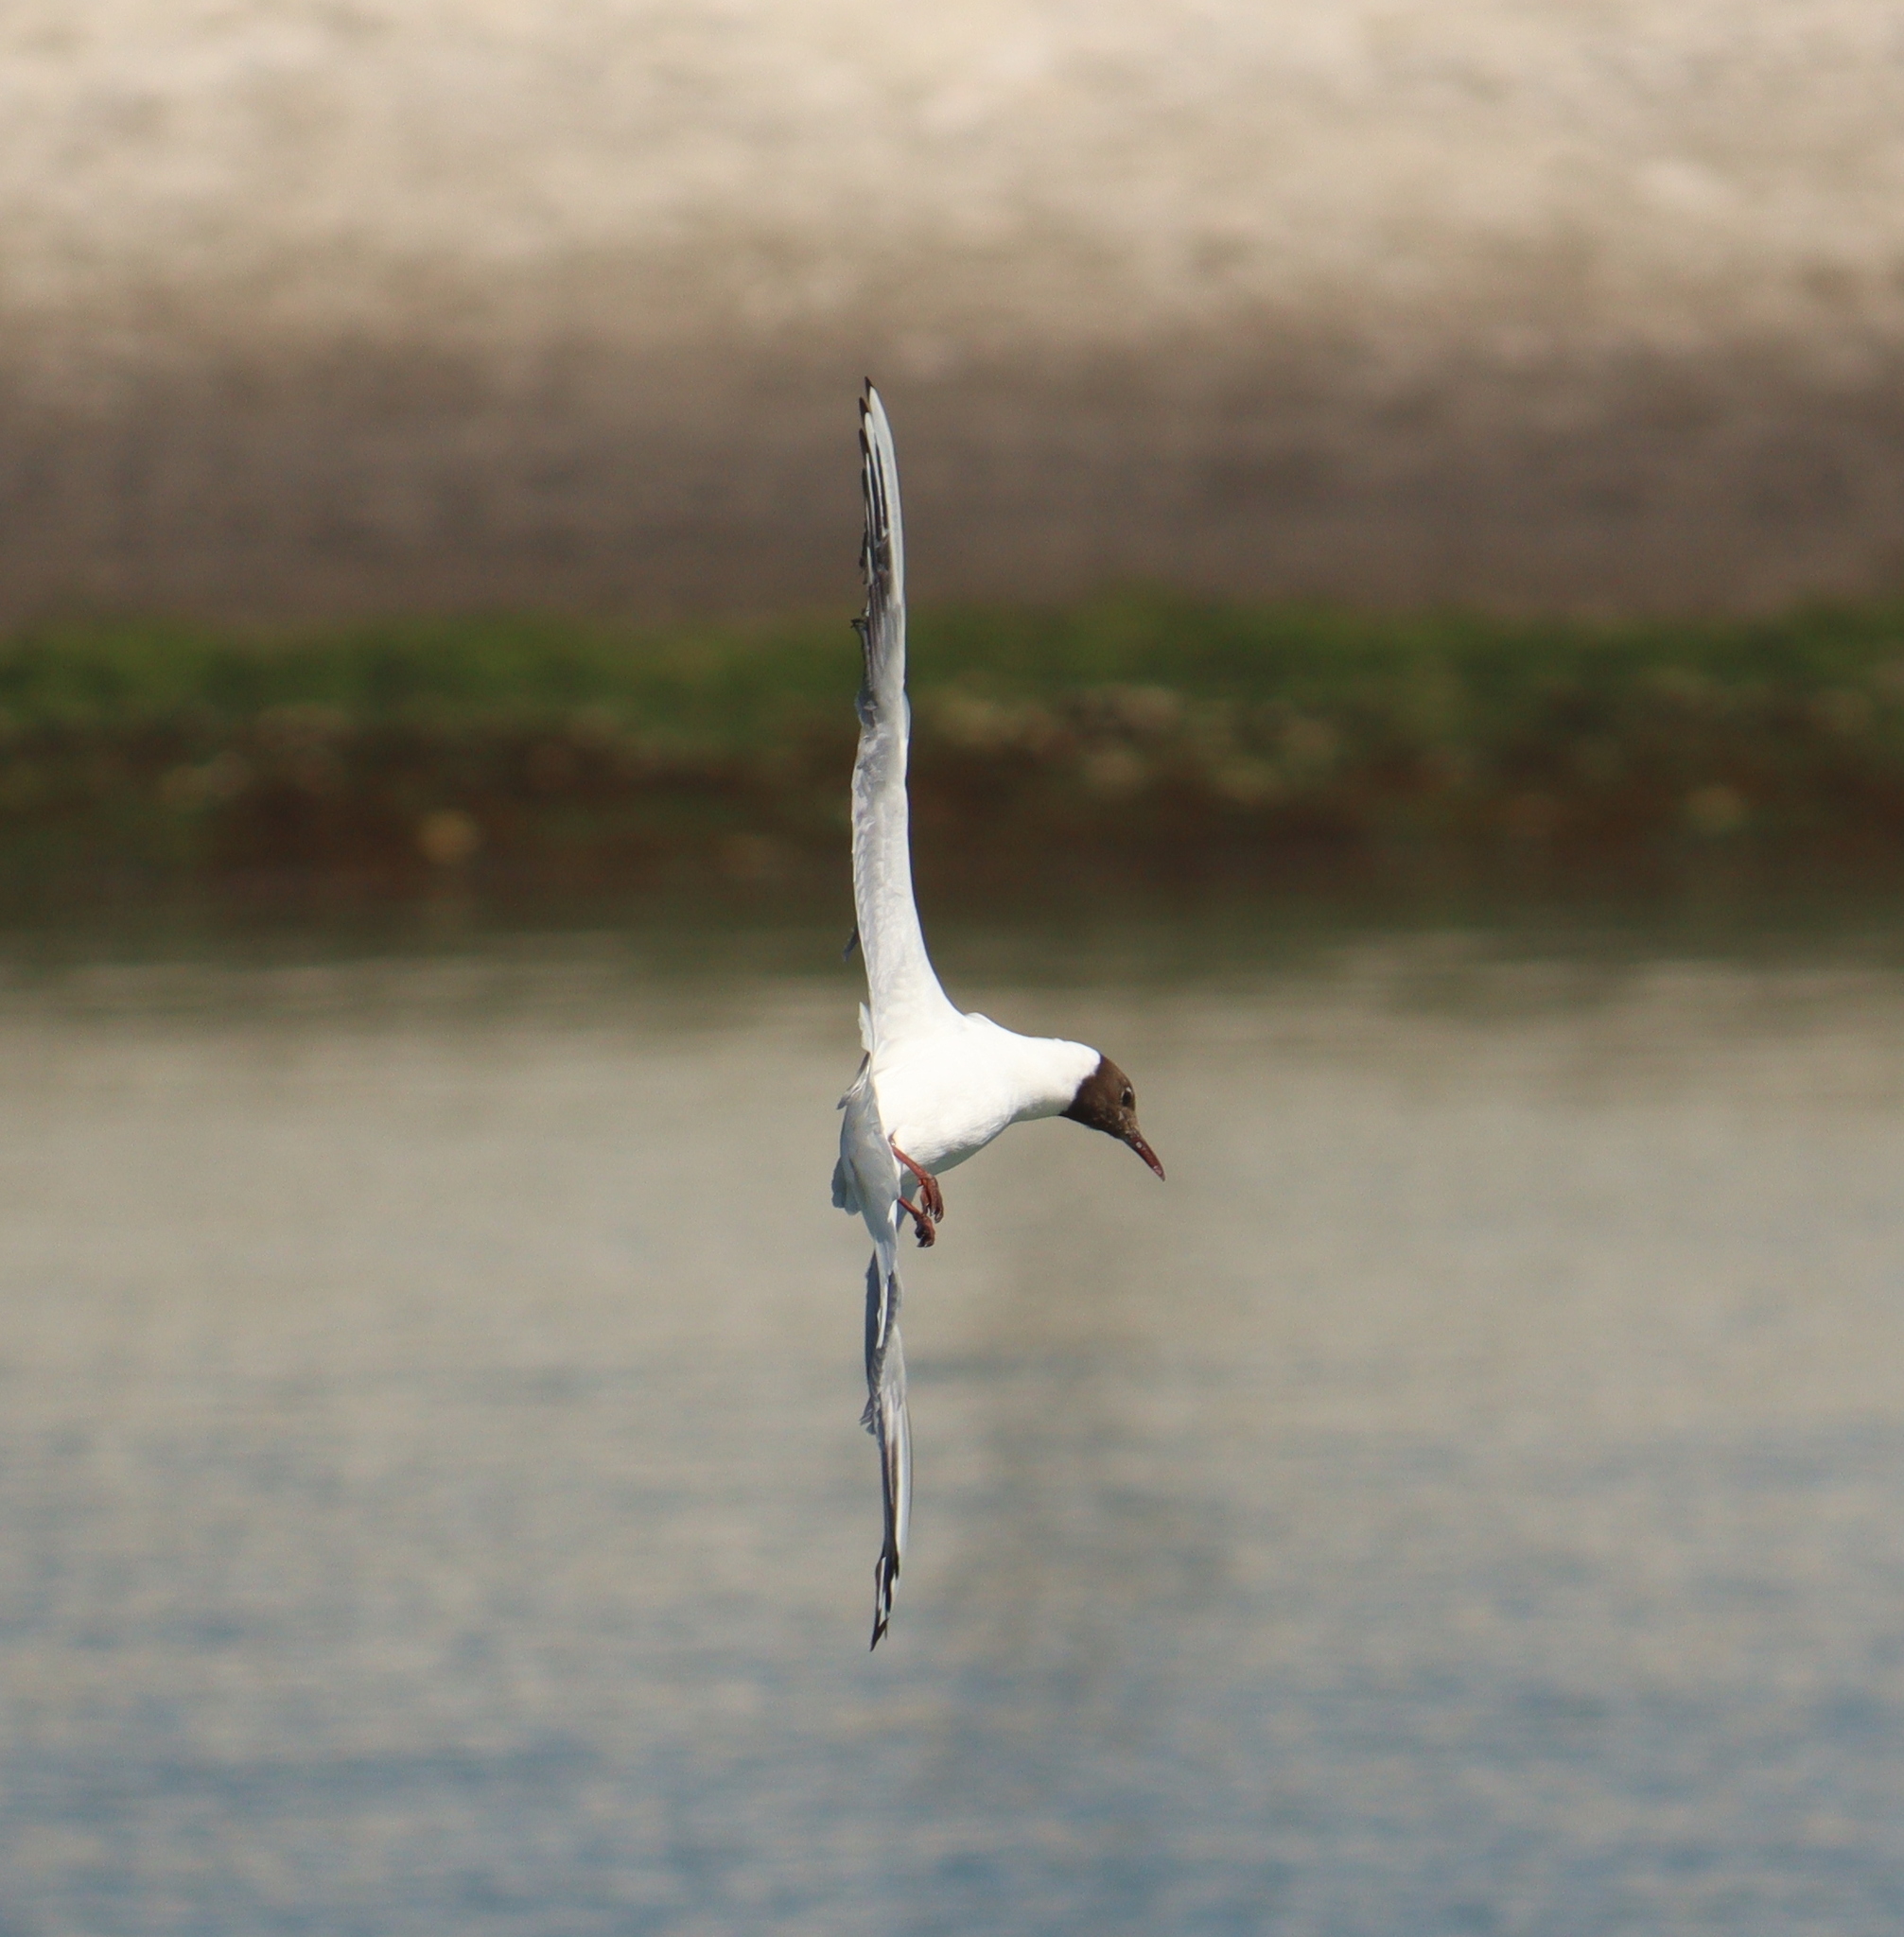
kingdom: Animalia
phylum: Chordata
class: Aves
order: Charadriiformes
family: Laridae
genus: Chroicocephalus
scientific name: Chroicocephalus ridibundus
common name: Black-headed gull
